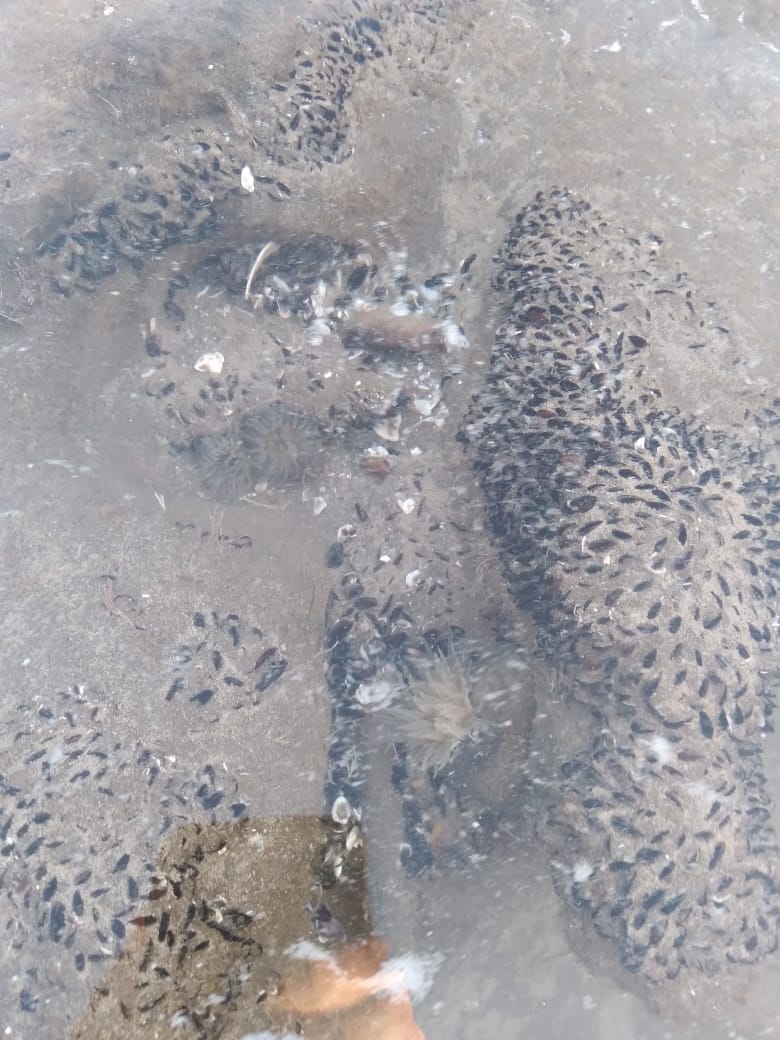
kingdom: Animalia
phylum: Cnidaria
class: Anthozoa
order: Actiniaria
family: Actiniidae
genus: Bunodosoma
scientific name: Bunodosoma zamponii
